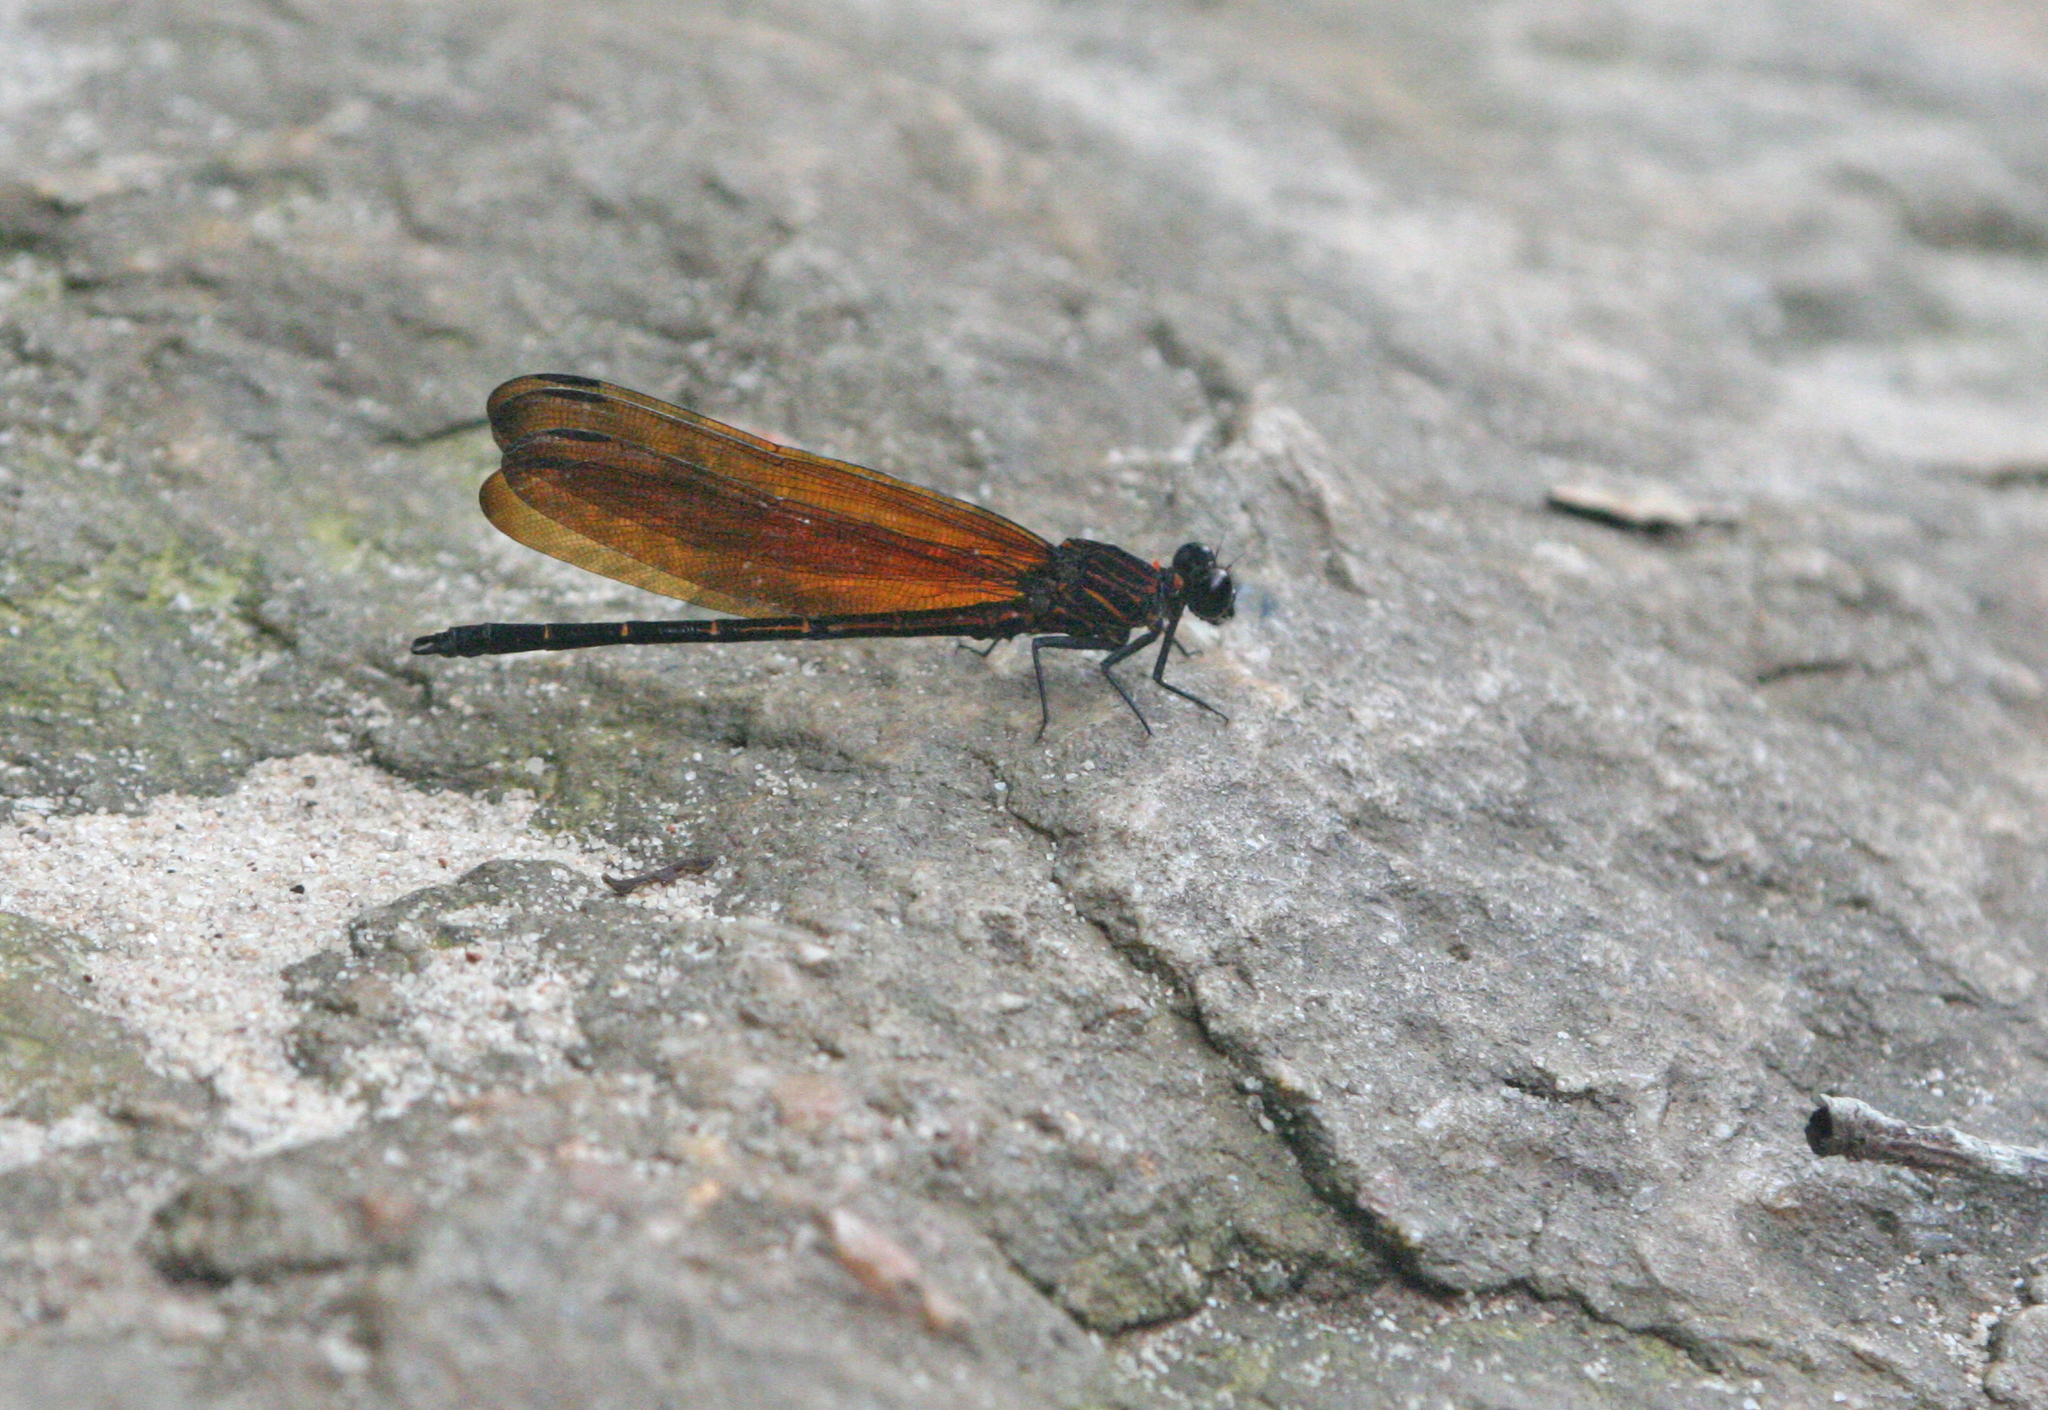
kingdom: Animalia
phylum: Arthropoda
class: Insecta
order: Odonata
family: Euphaeidae
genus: Dysphaea
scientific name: Dysphaea gloriosa
